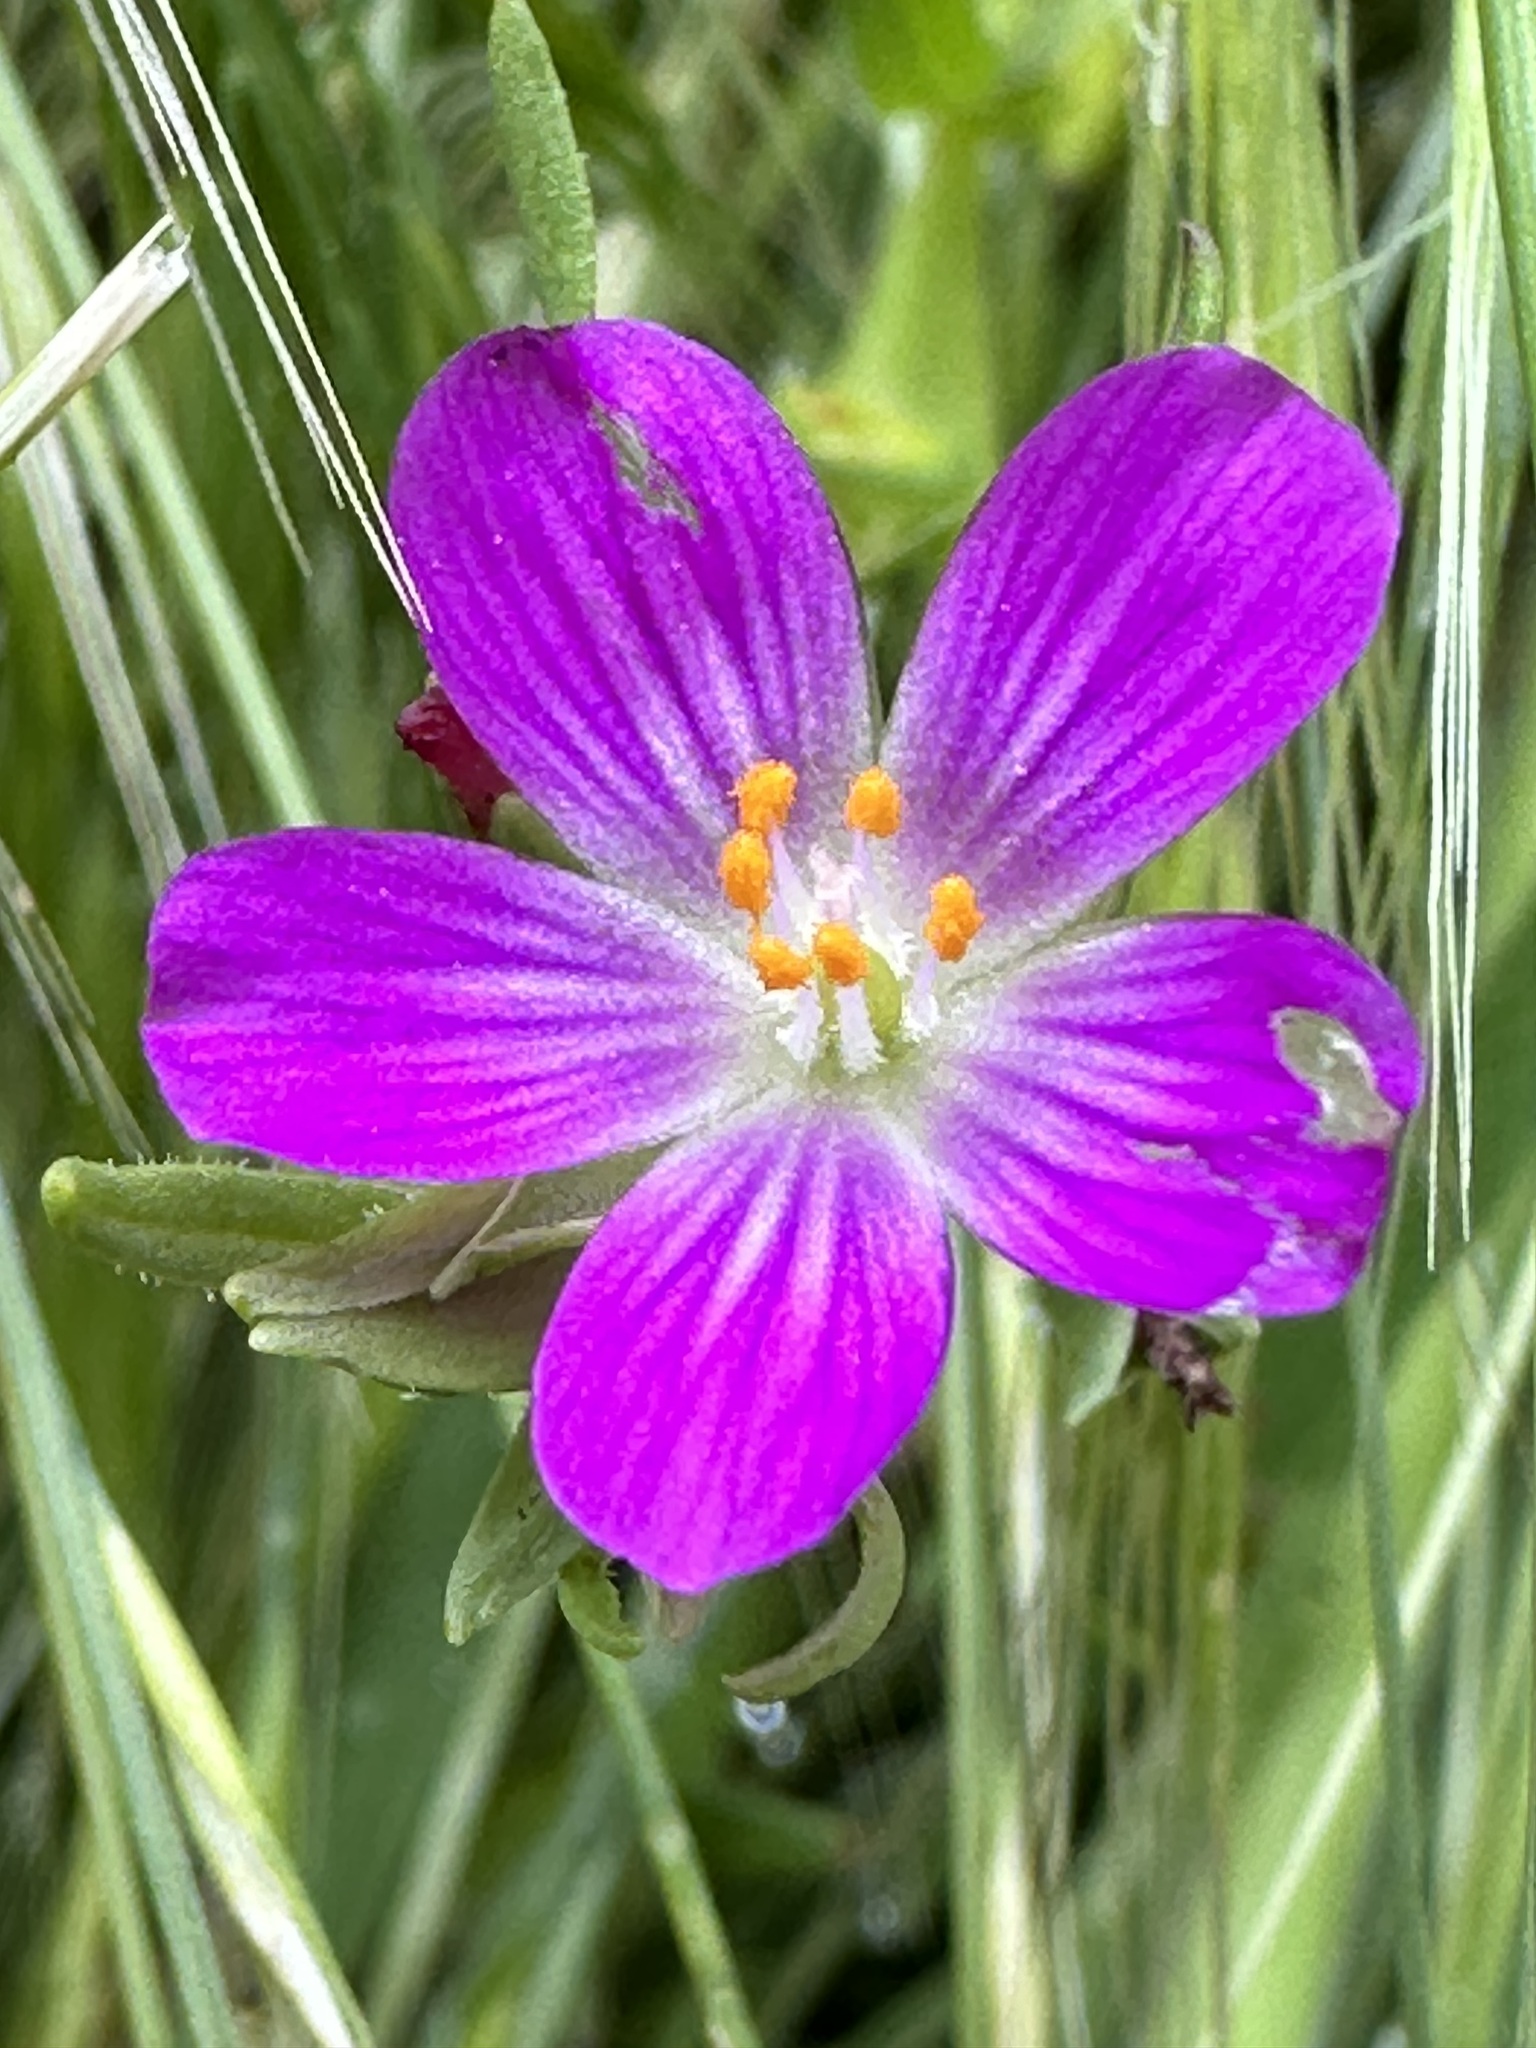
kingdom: Plantae
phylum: Tracheophyta
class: Magnoliopsida
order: Caryophyllales
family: Montiaceae
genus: Calandrinia
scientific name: Calandrinia menziesii
